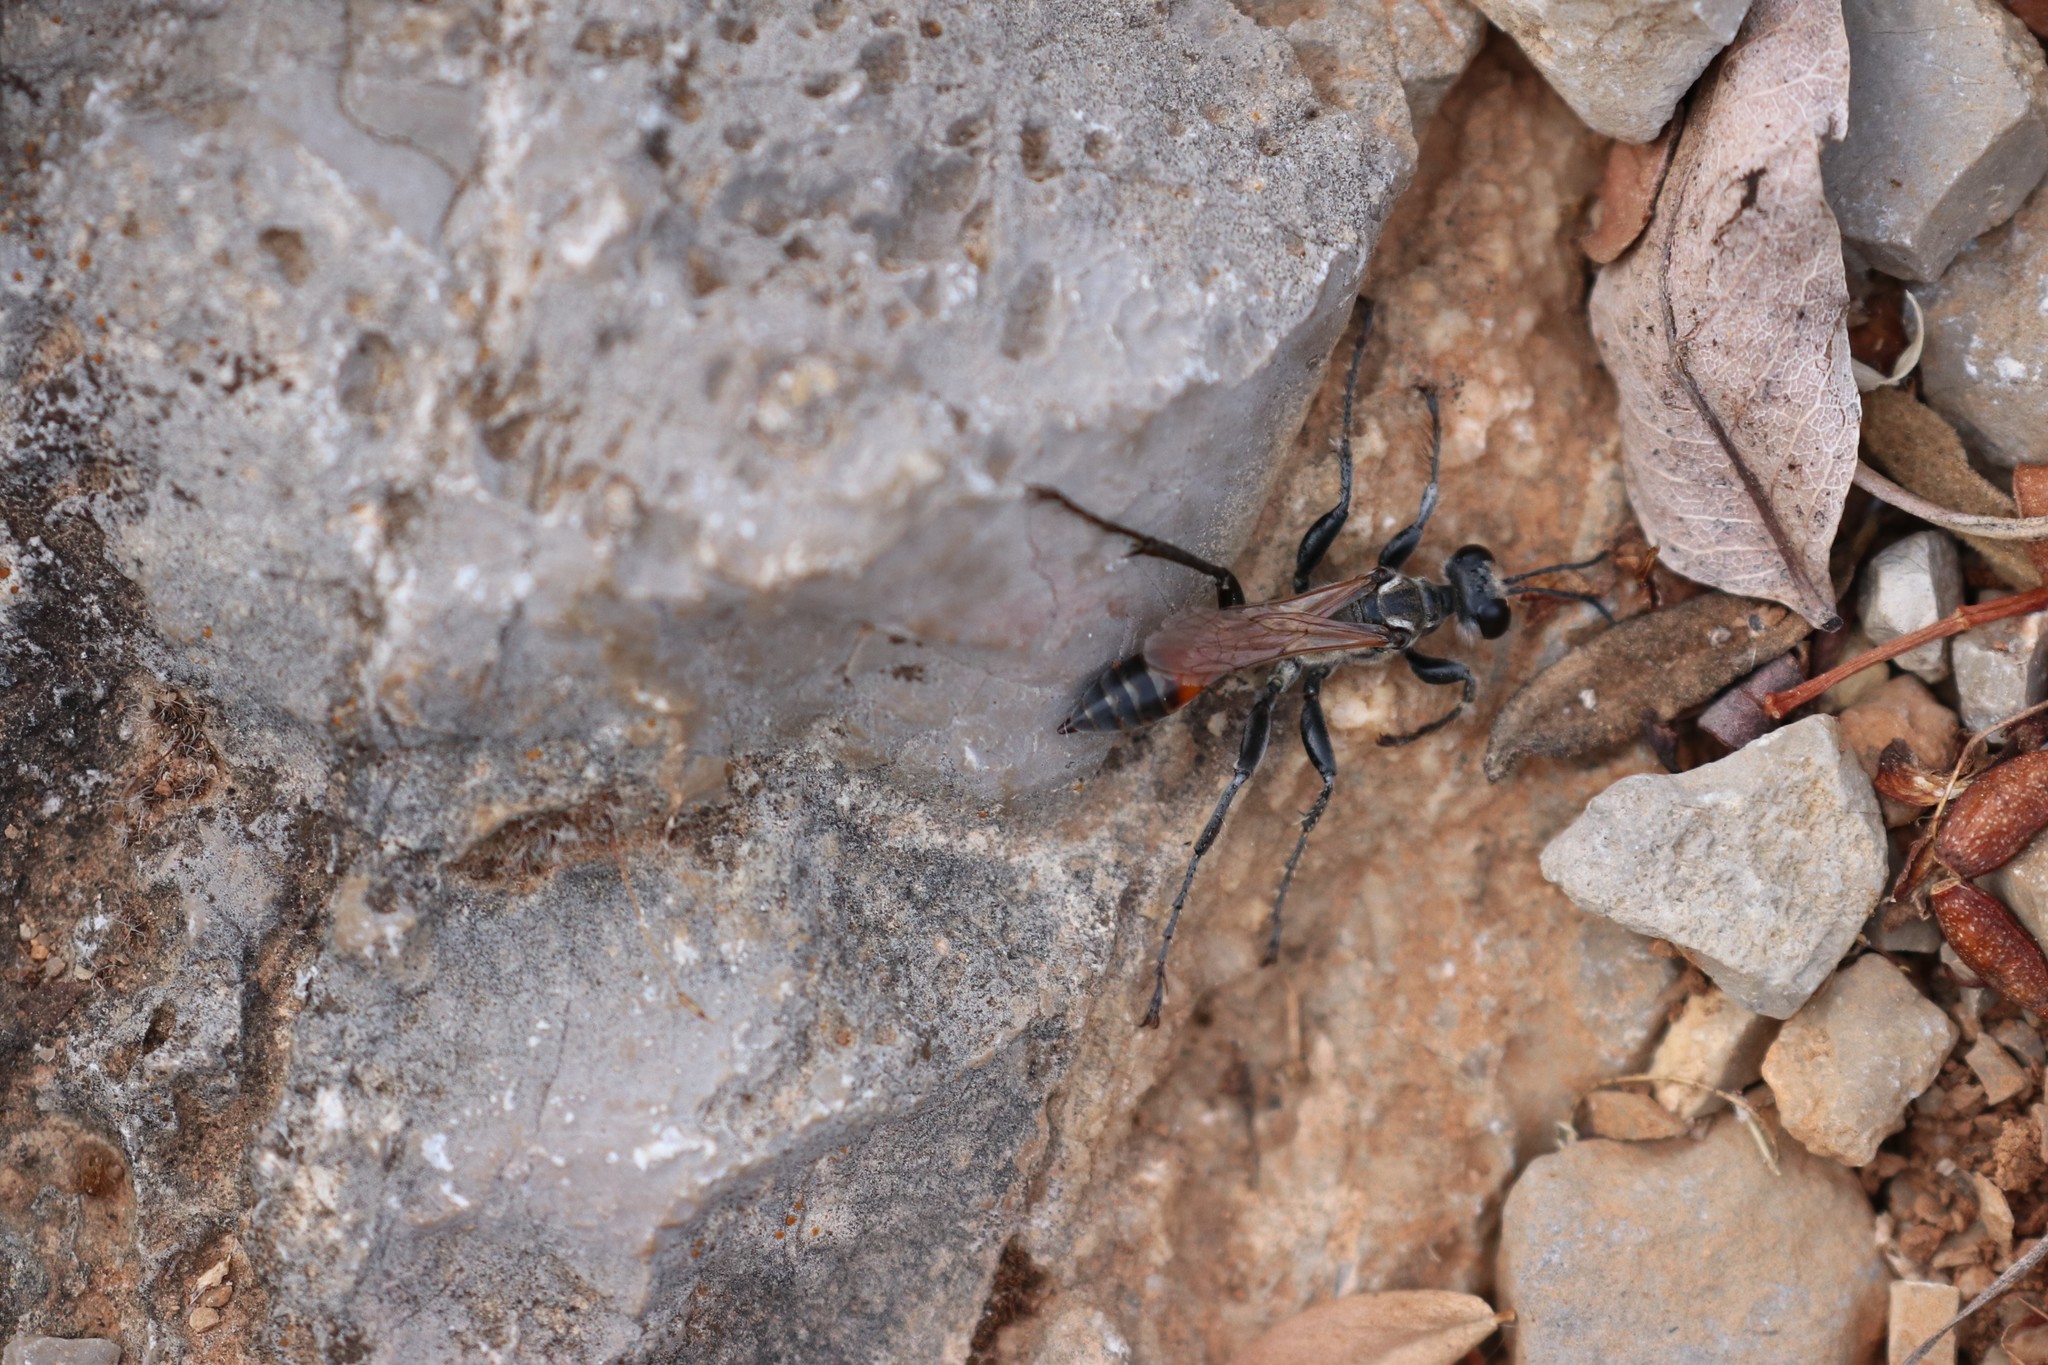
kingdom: Animalia
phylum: Arthropoda
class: Insecta
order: Hymenoptera
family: Sphecidae
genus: Prionyx
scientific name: Prionyx lividocinctus
